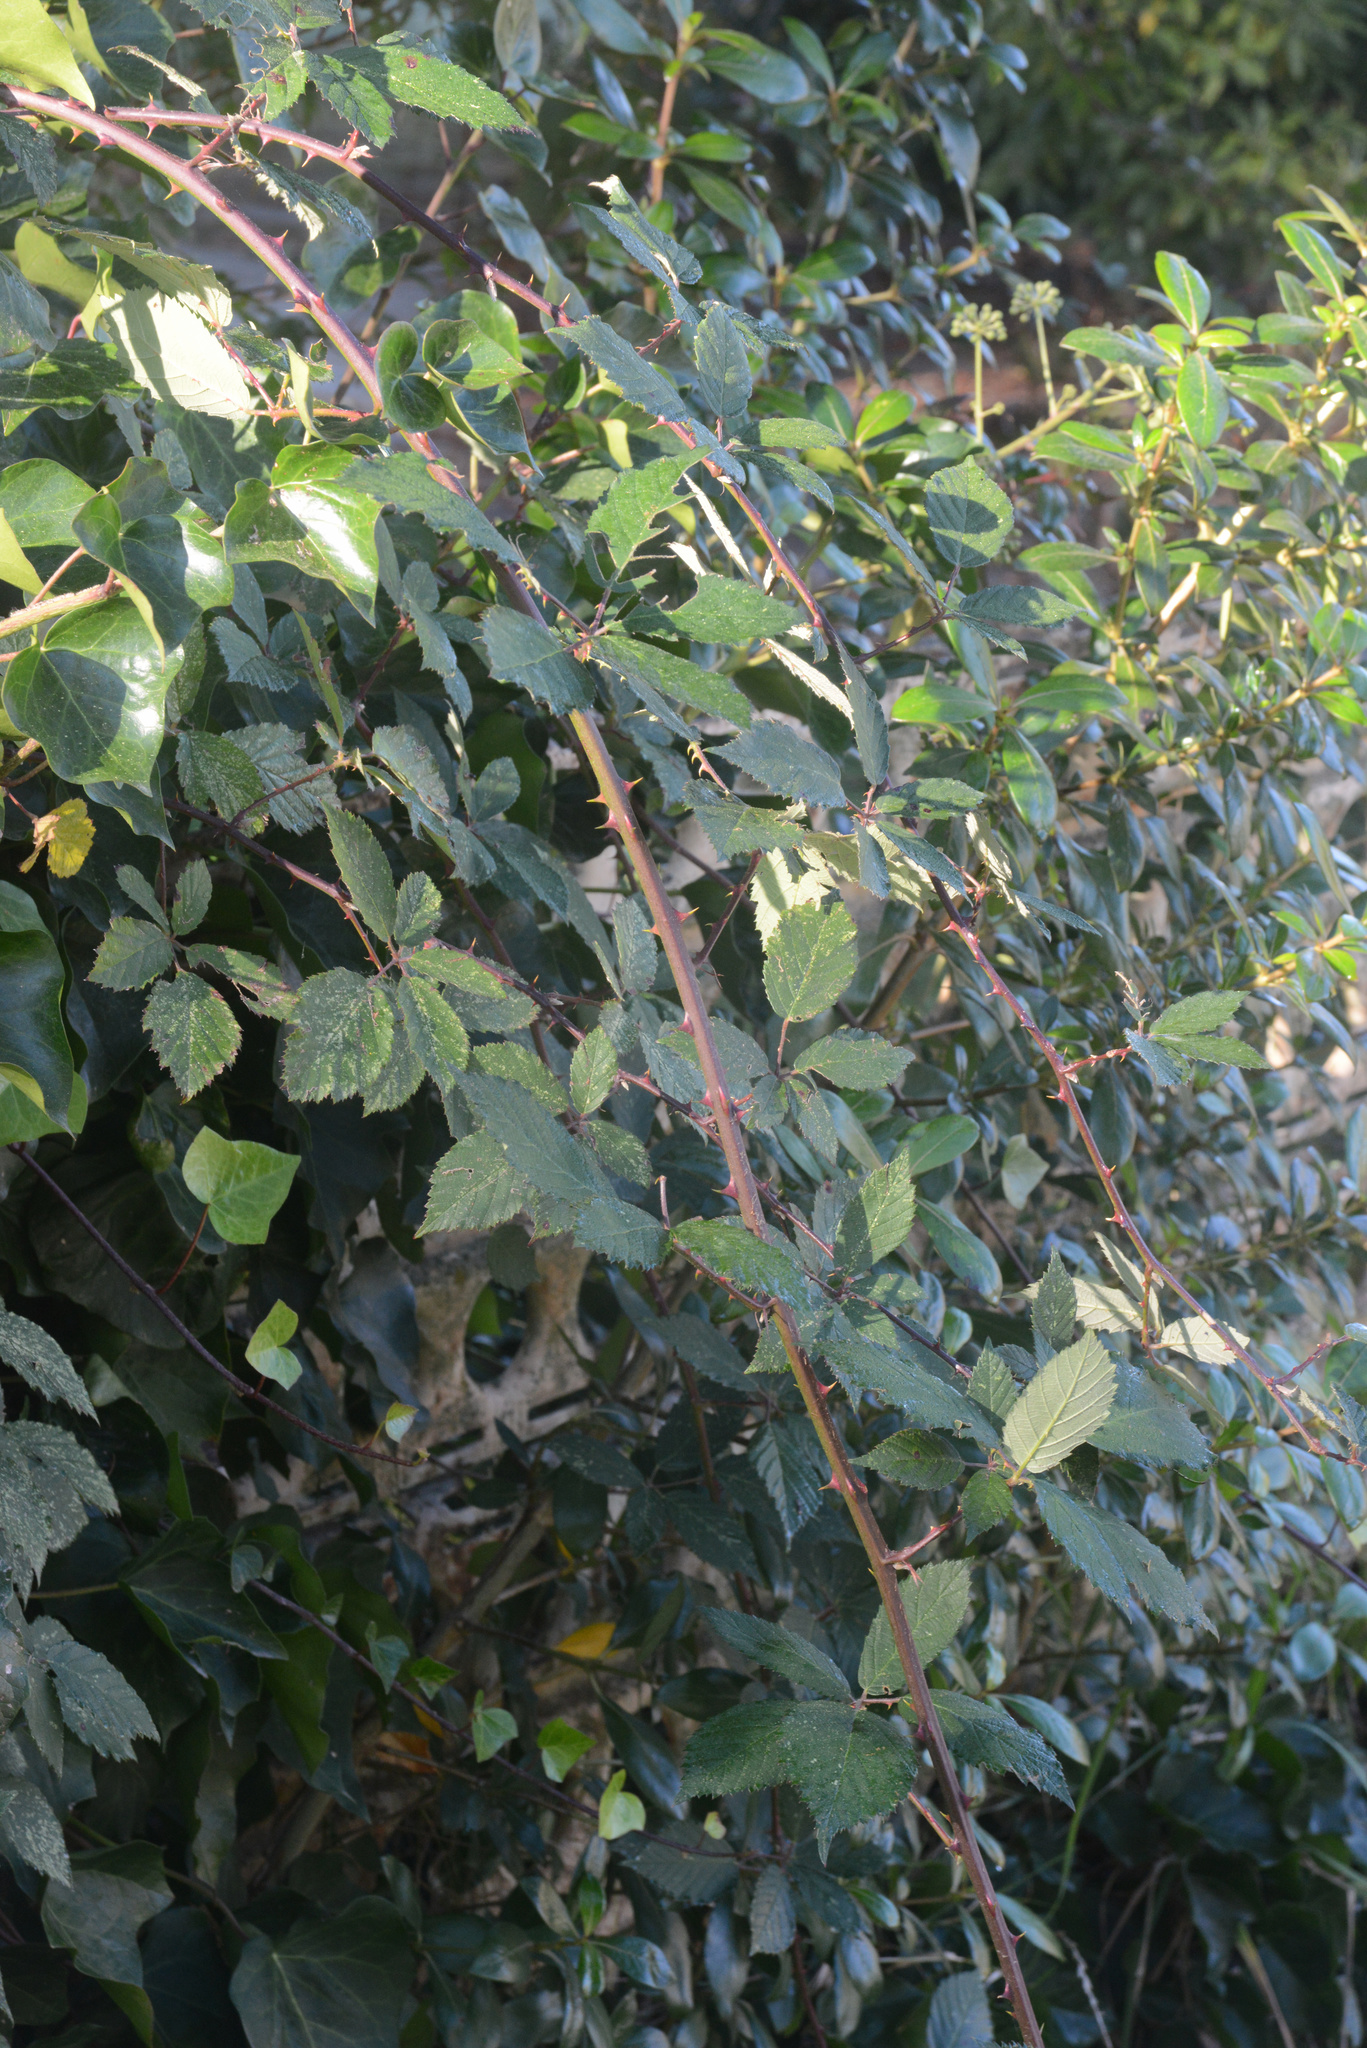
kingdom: Plantae
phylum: Tracheophyta
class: Magnoliopsida
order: Rosales
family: Rosaceae
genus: Rubus
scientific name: Rubus
